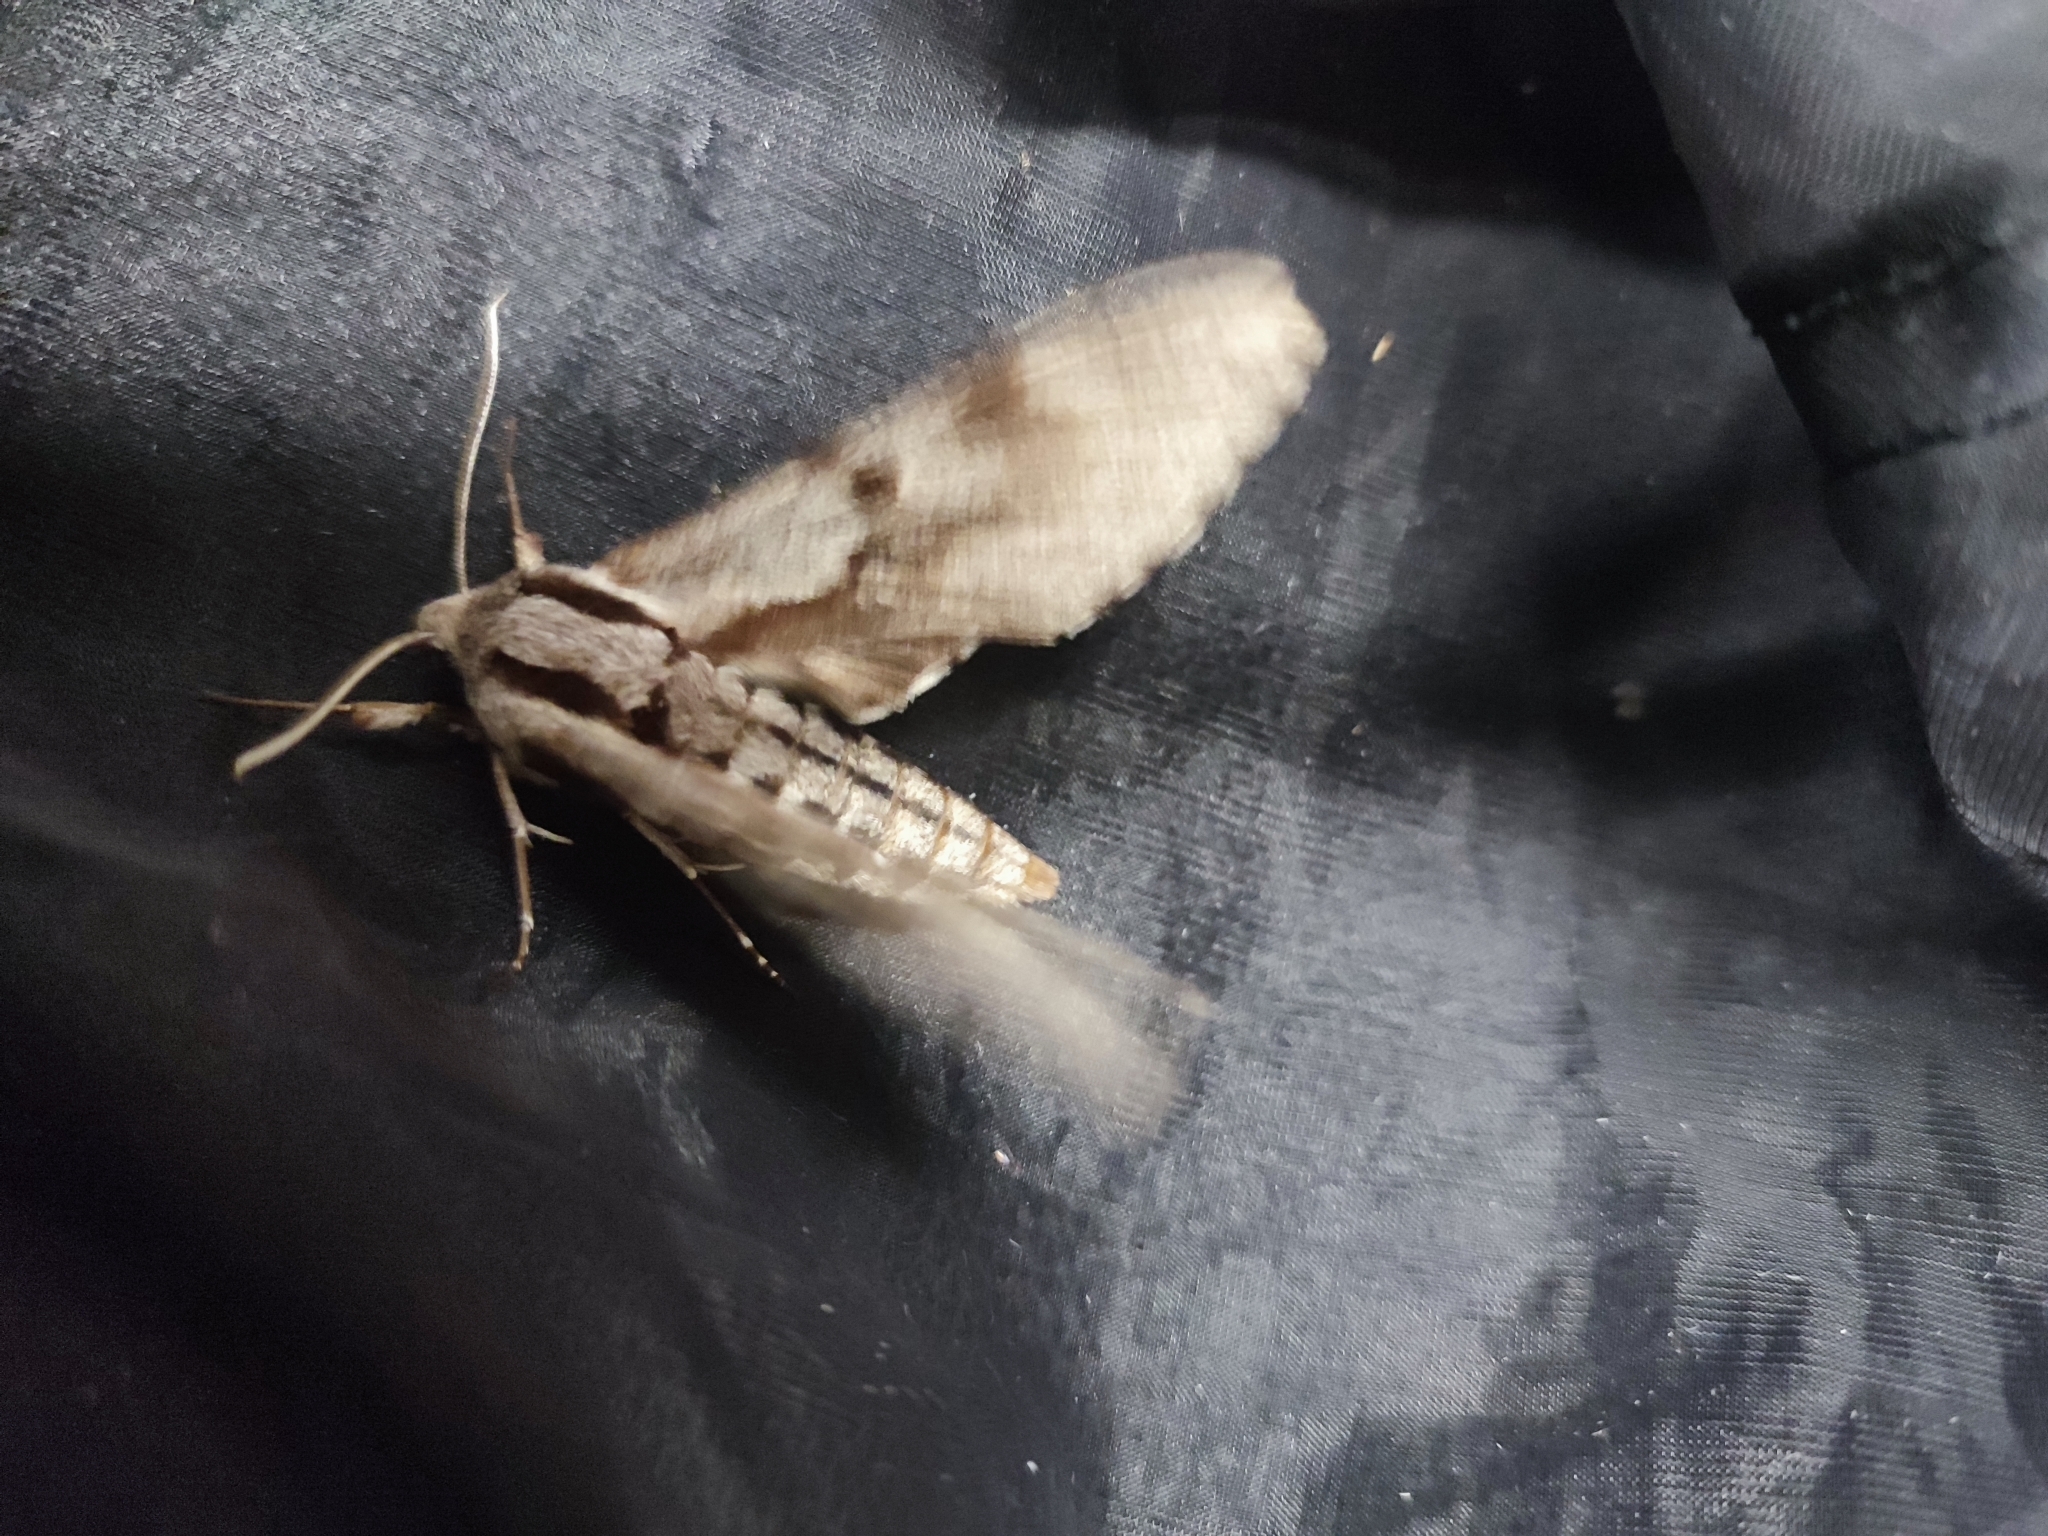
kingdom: Animalia
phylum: Arthropoda
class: Insecta
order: Lepidoptera
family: Sphingidae
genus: Sphinx
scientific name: Sphinx pinastri
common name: Pine hawk-moth
